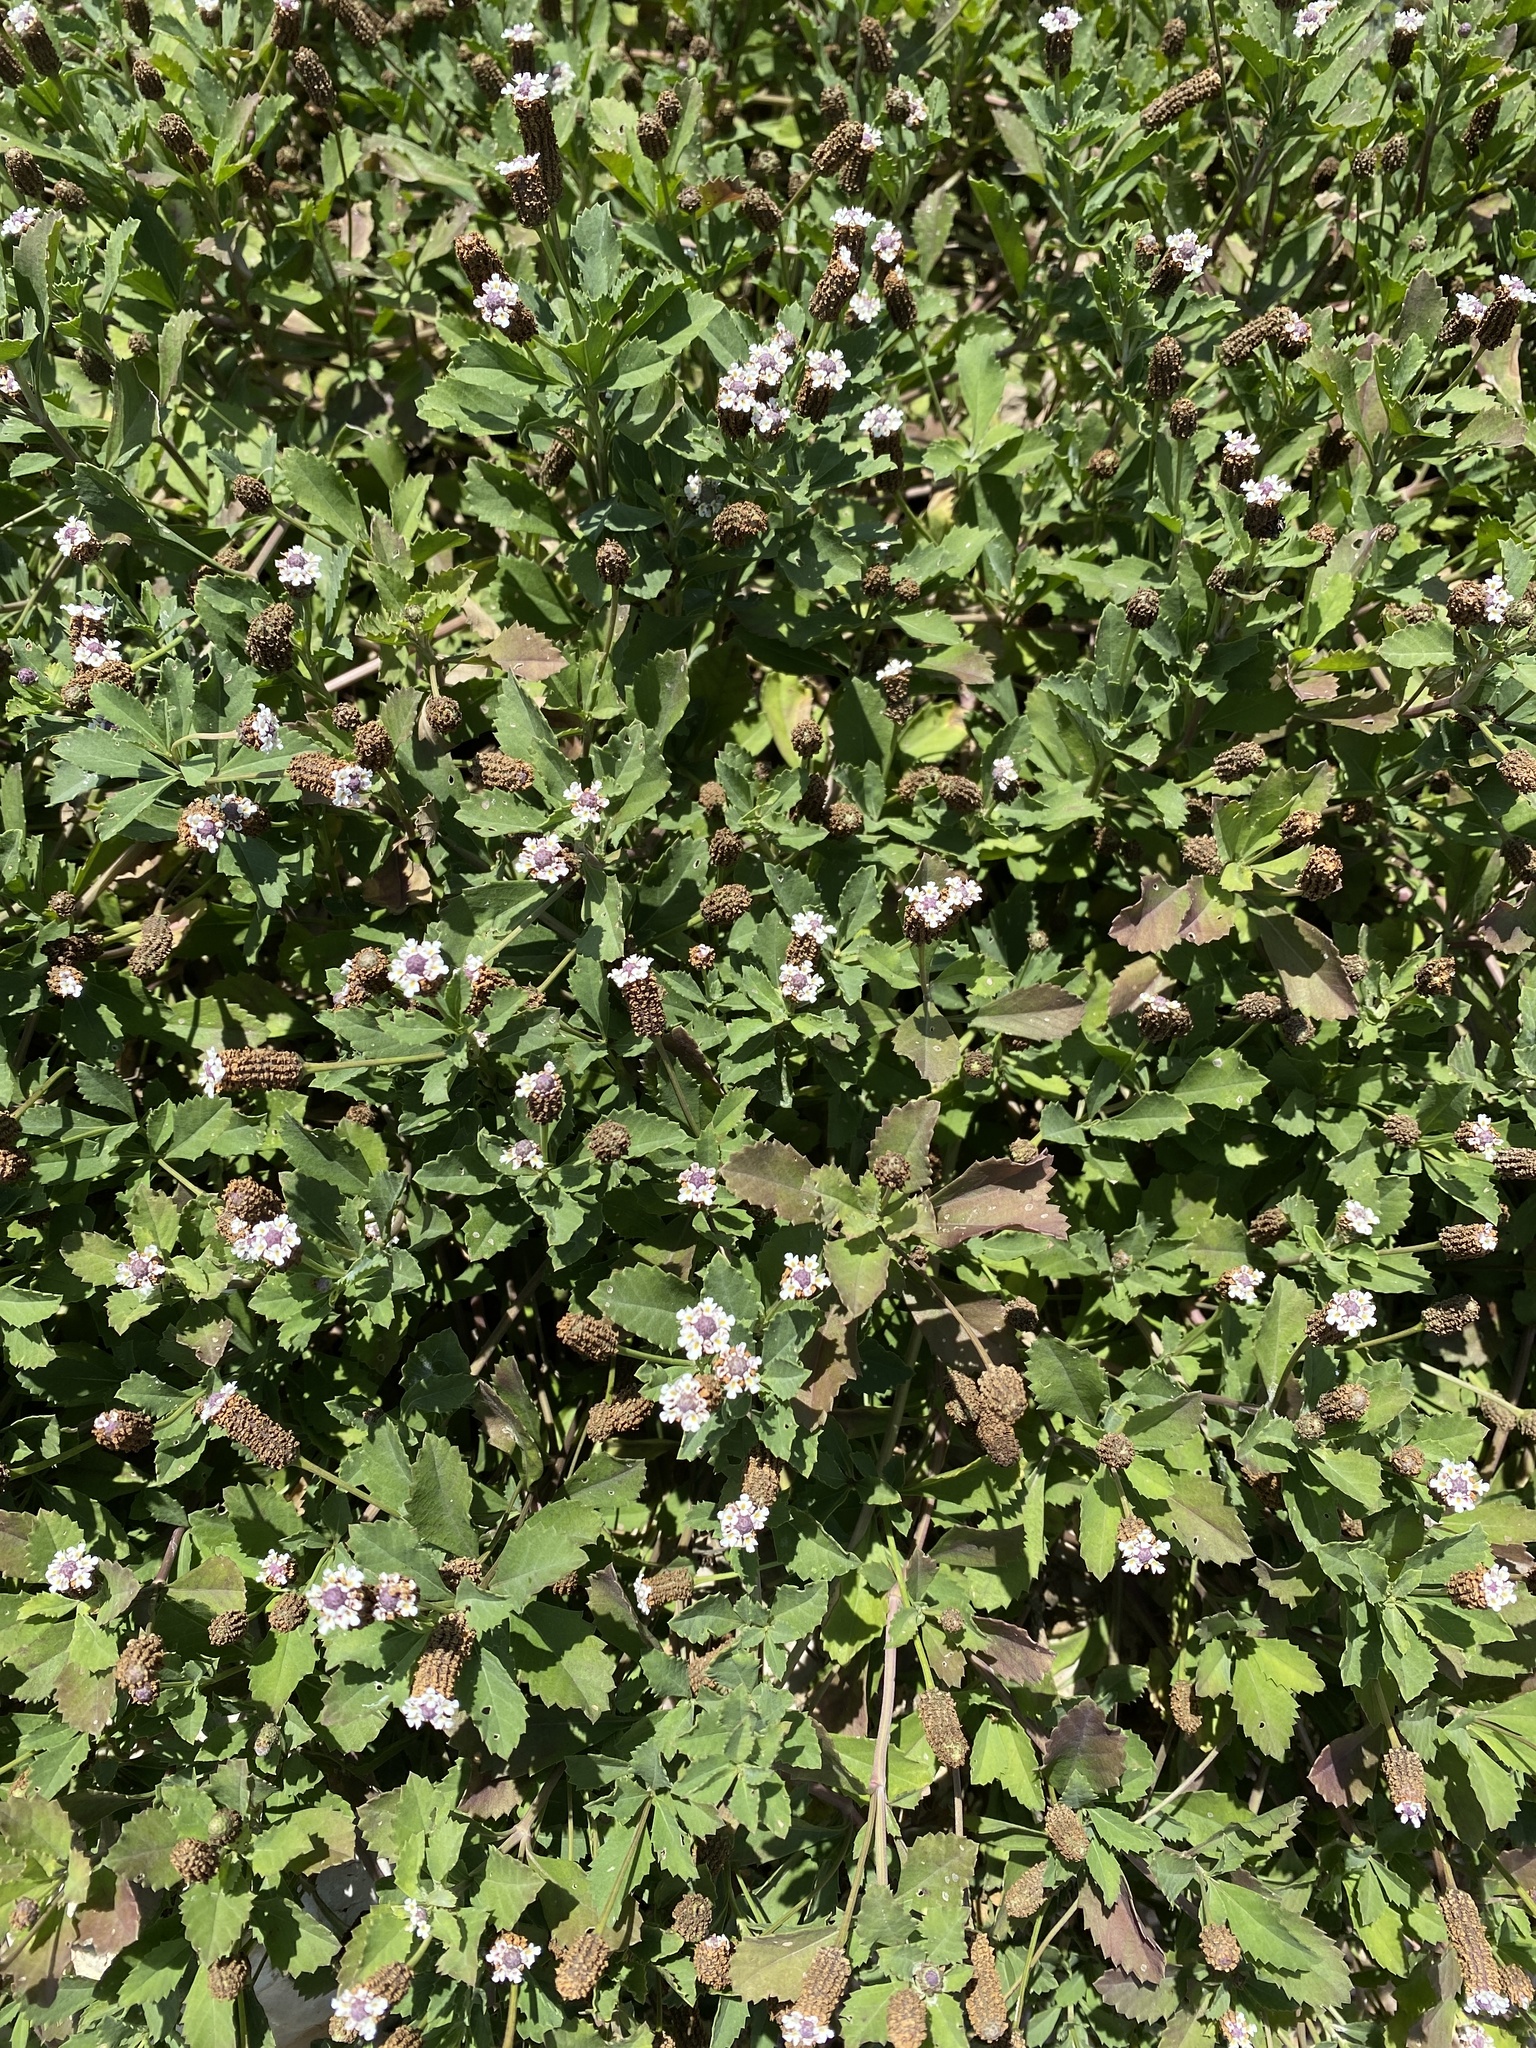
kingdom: Plantae
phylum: Tracheophyta
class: Magnoliopsida
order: Lamiales
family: Verbenaceae
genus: Phyla
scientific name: Phyla nodiflora
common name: Frogfruit
